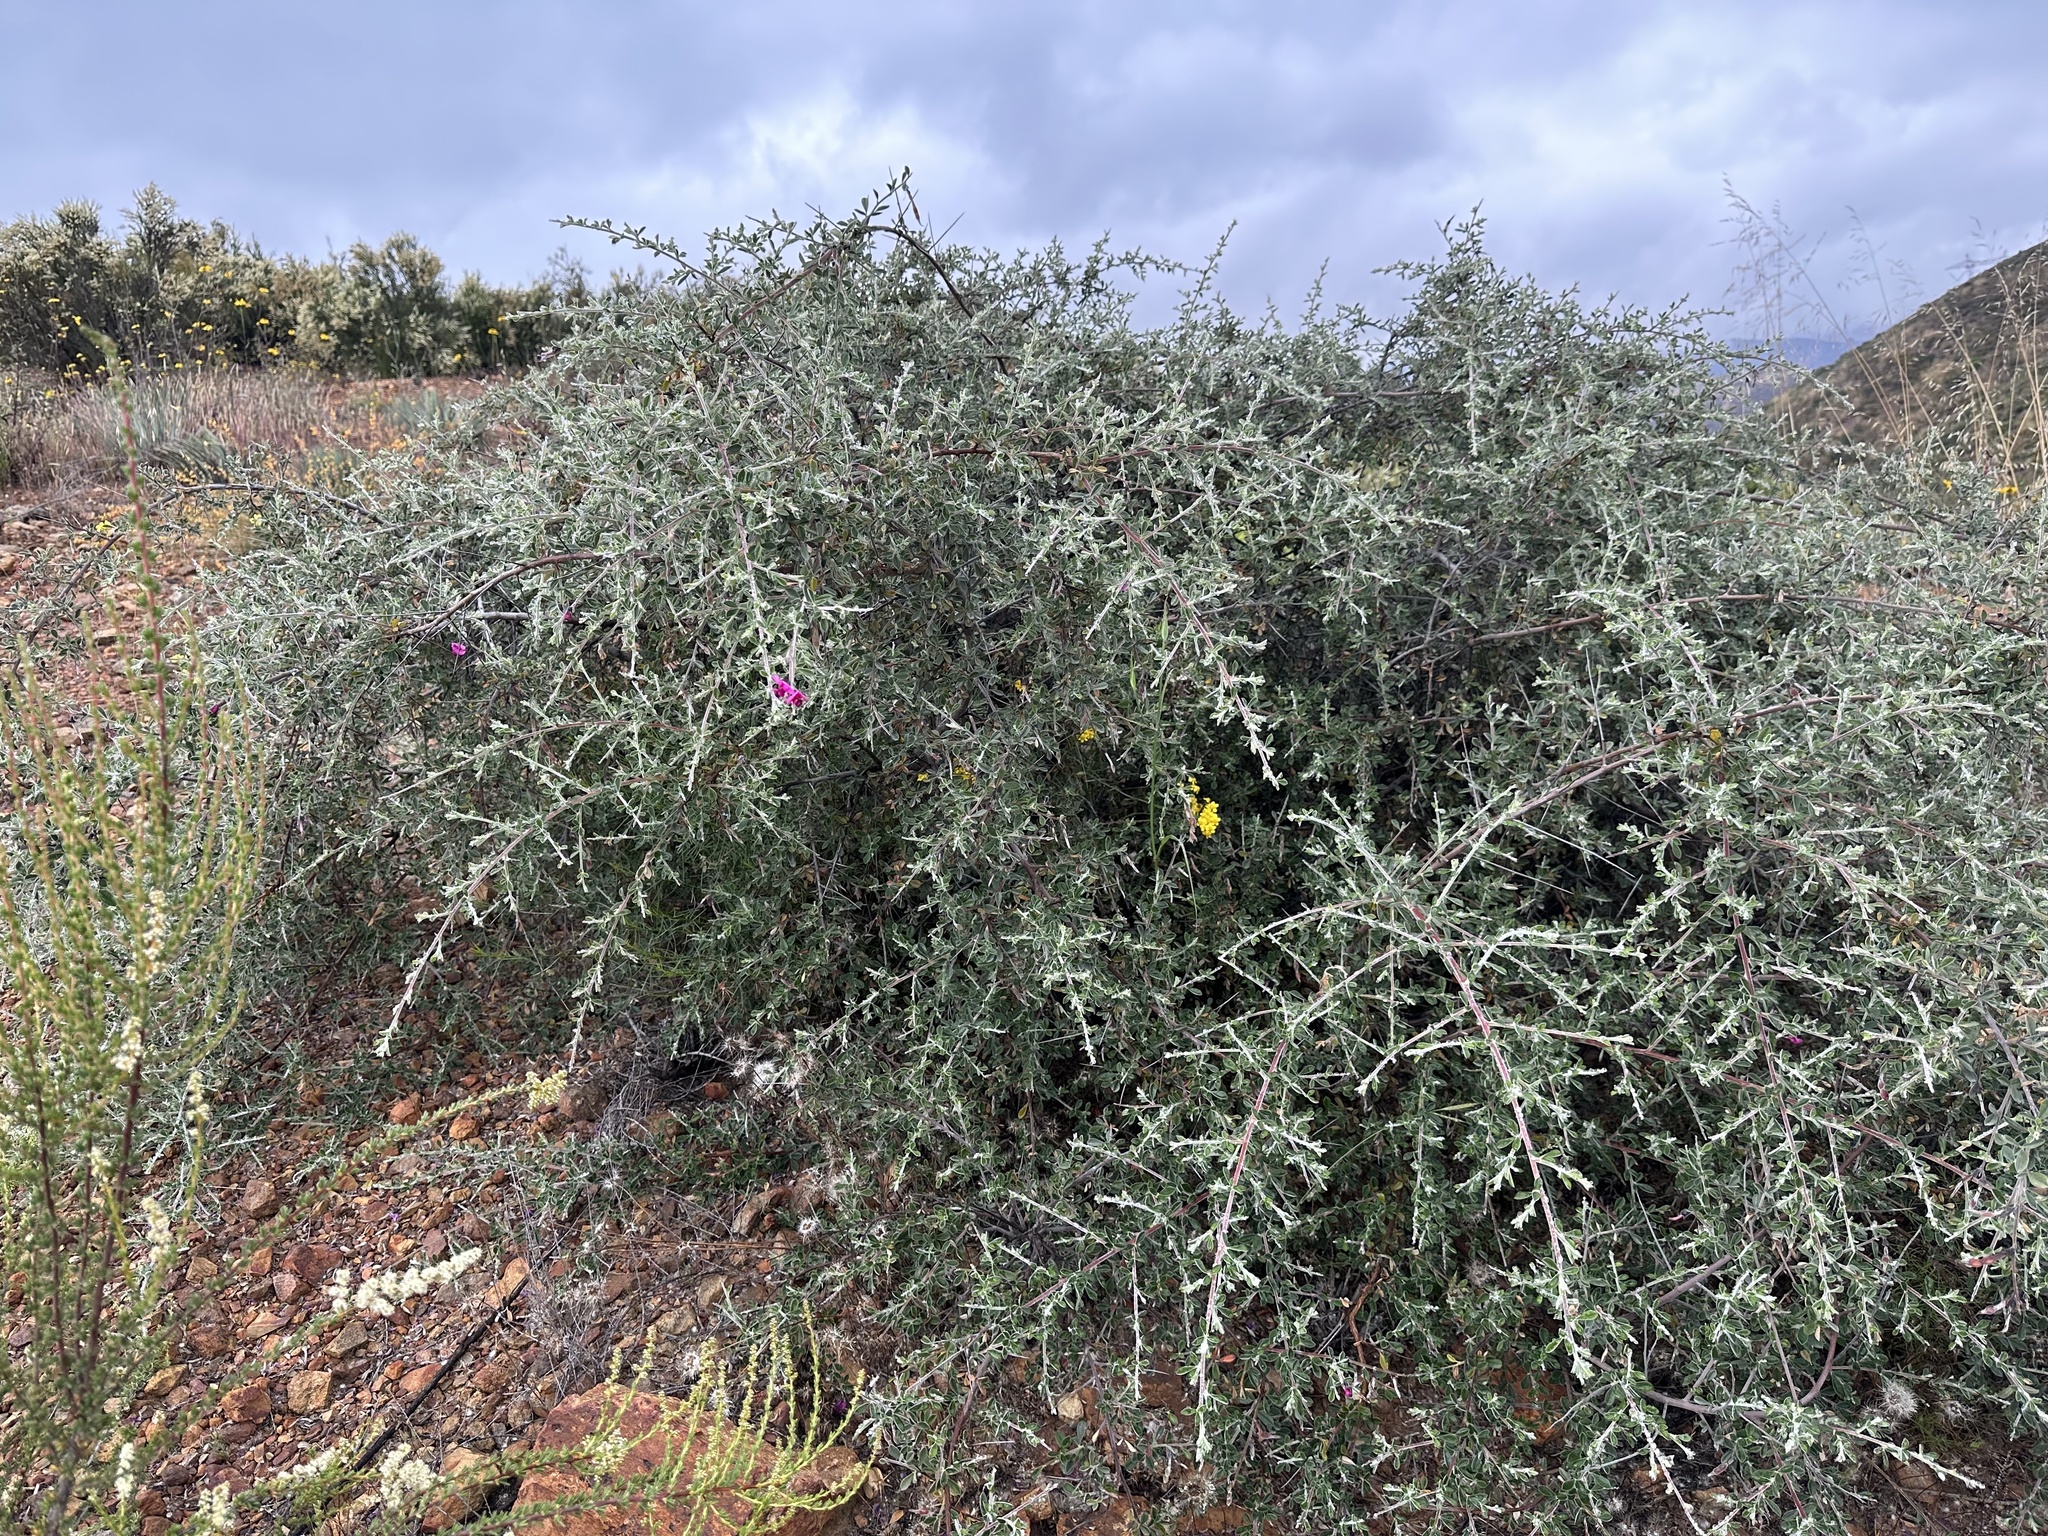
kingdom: Plantae
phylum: Tracheophyta
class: Magnoliopsida
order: Fabales
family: Fabaceae
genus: Pickeringia
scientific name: Pickeringia montana
